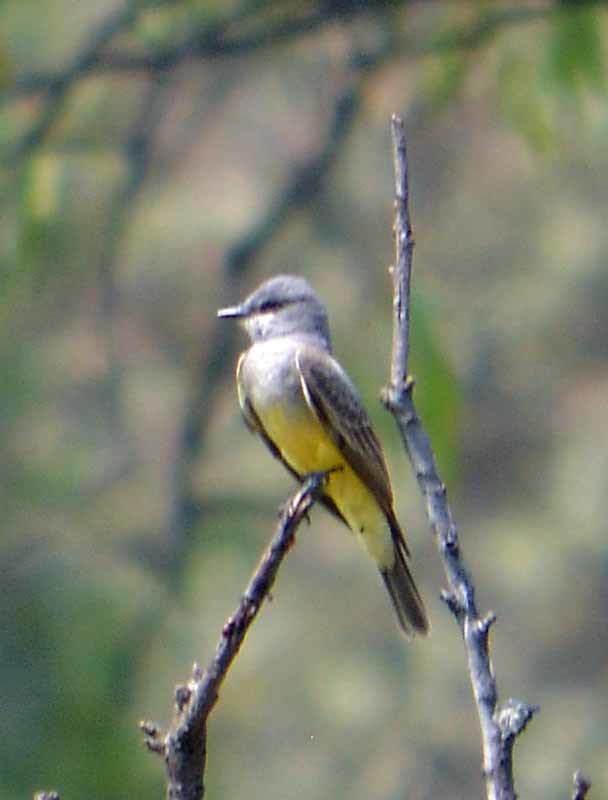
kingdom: Animalia
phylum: Chordata
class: Aves
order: Passeriformes
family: Tyrannidae
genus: Tyrannus
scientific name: Tyrannus verticalis
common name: Western kingbird
